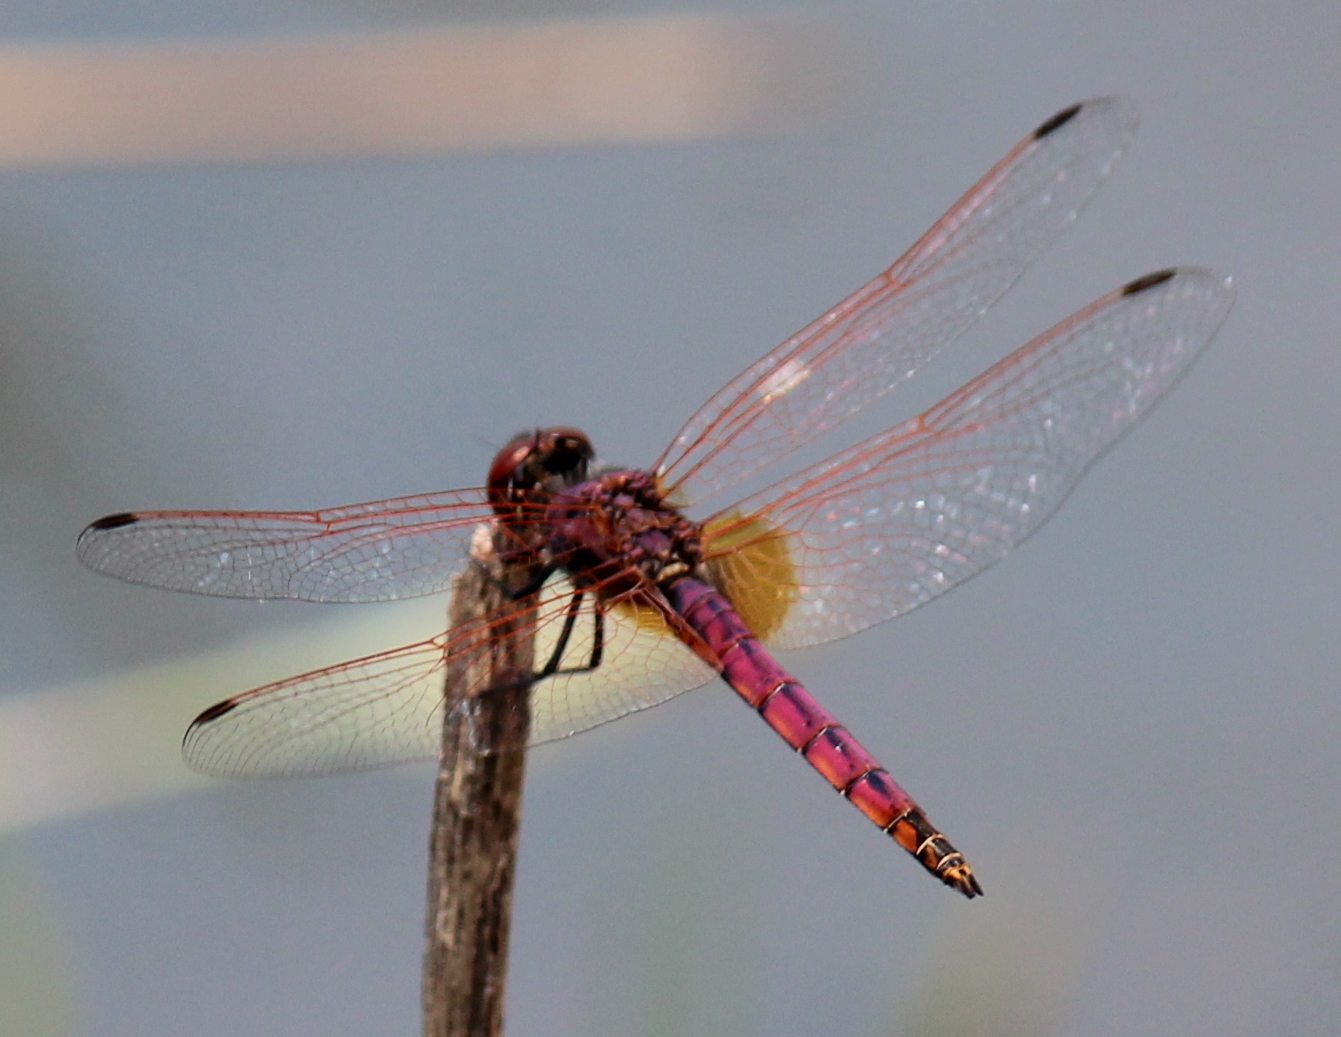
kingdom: Animalia
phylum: Arthropoda
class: Insecta
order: Odonata
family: Libellulidae
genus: Trithemis
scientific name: Trithemis annulata
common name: Violet dropwing
